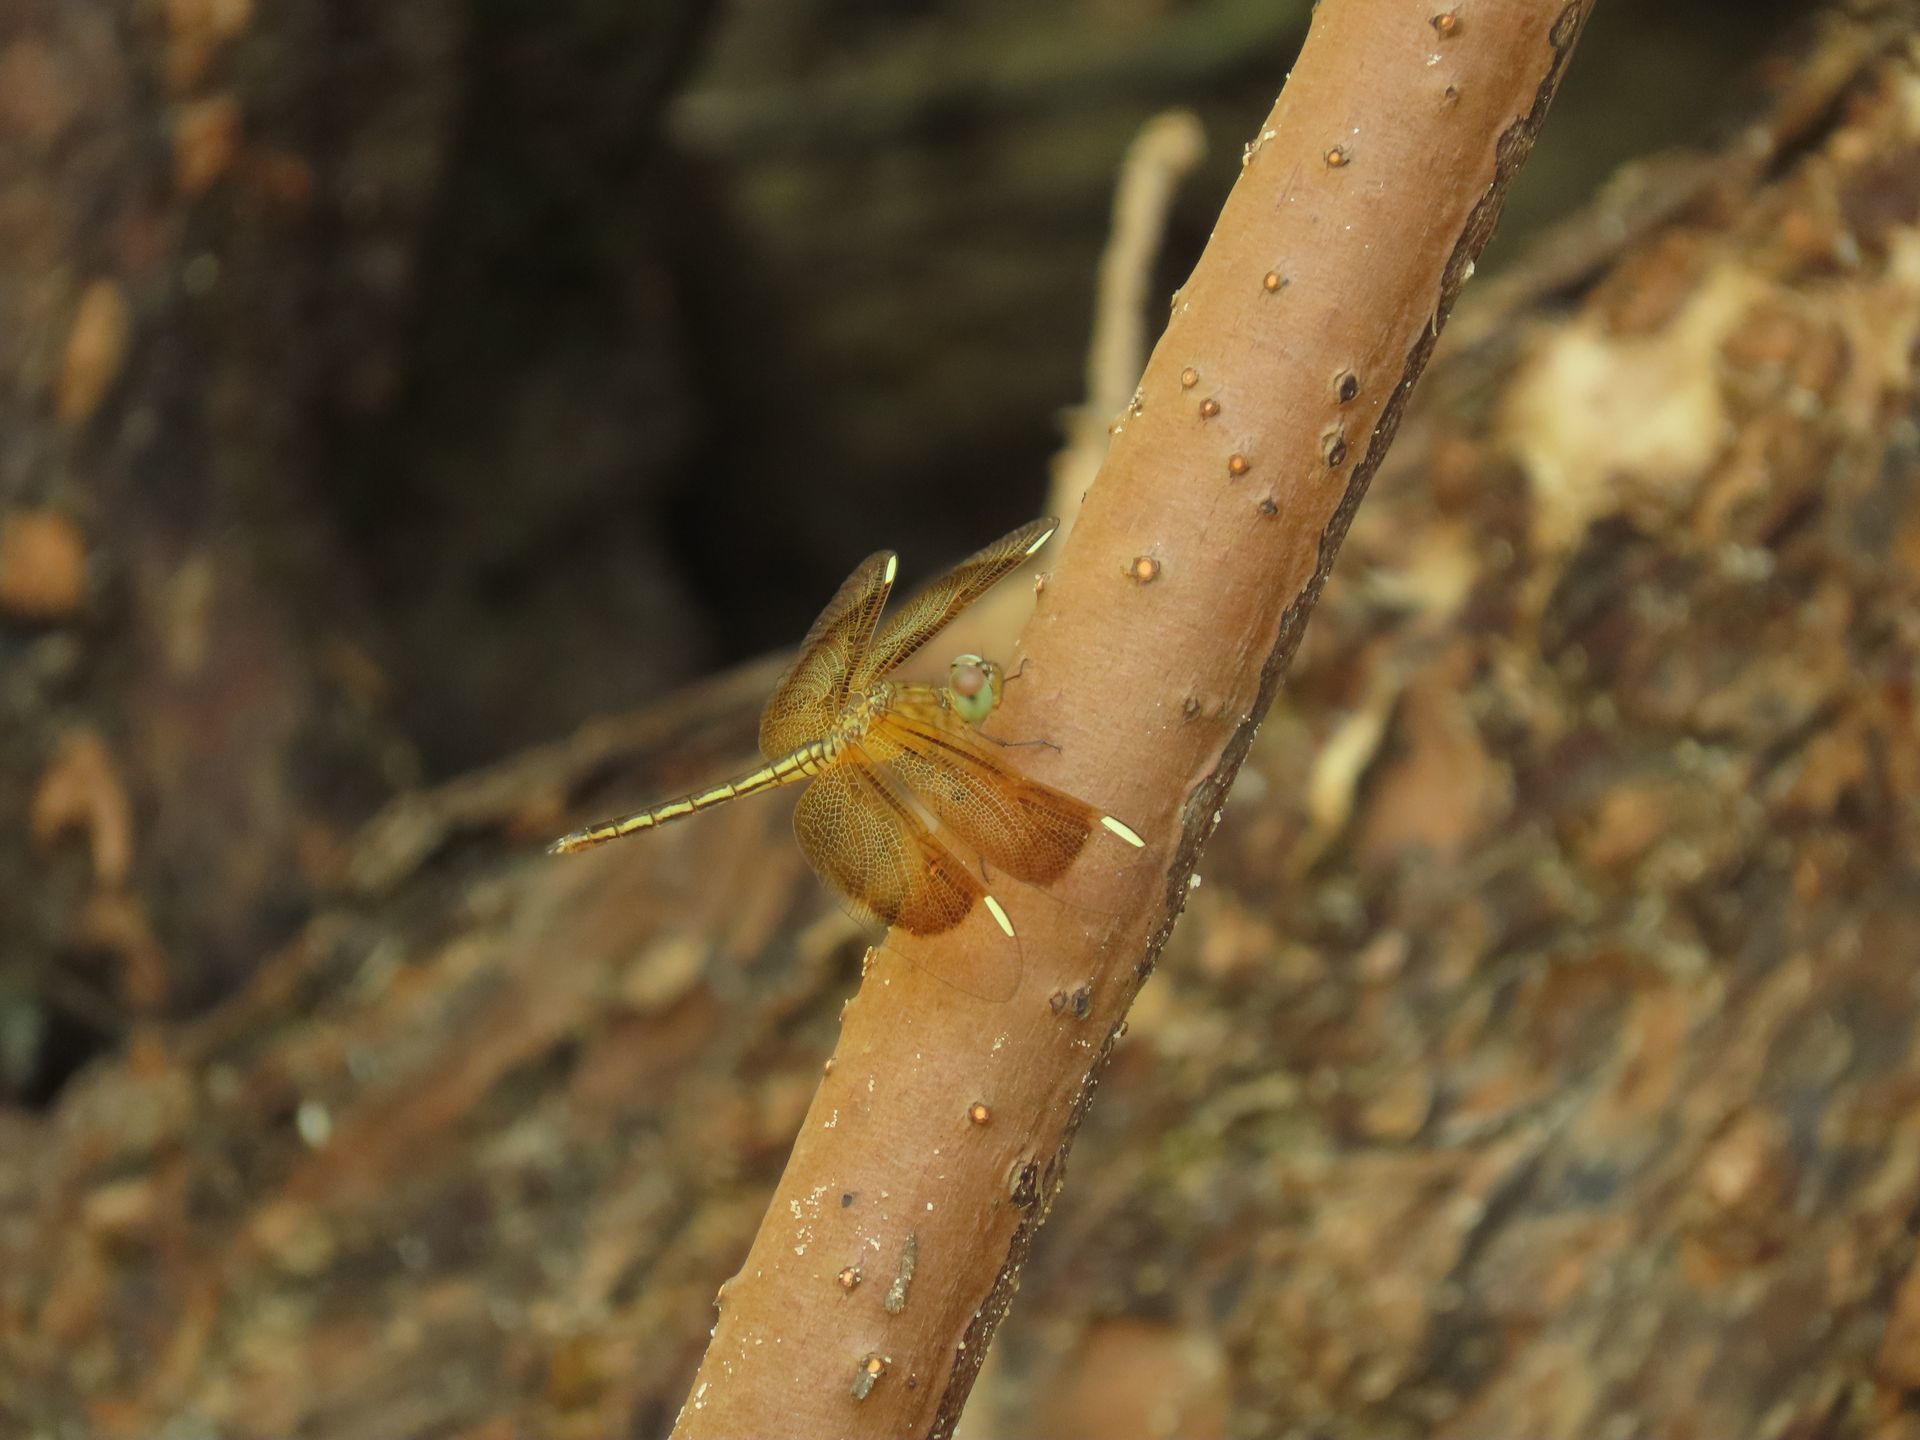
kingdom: Animalia
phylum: Arthropoda
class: Insecta
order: Odonata
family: Libellulidae
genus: Neurothemis
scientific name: Neurothemis stigmatizans
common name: Painted grasshawk
